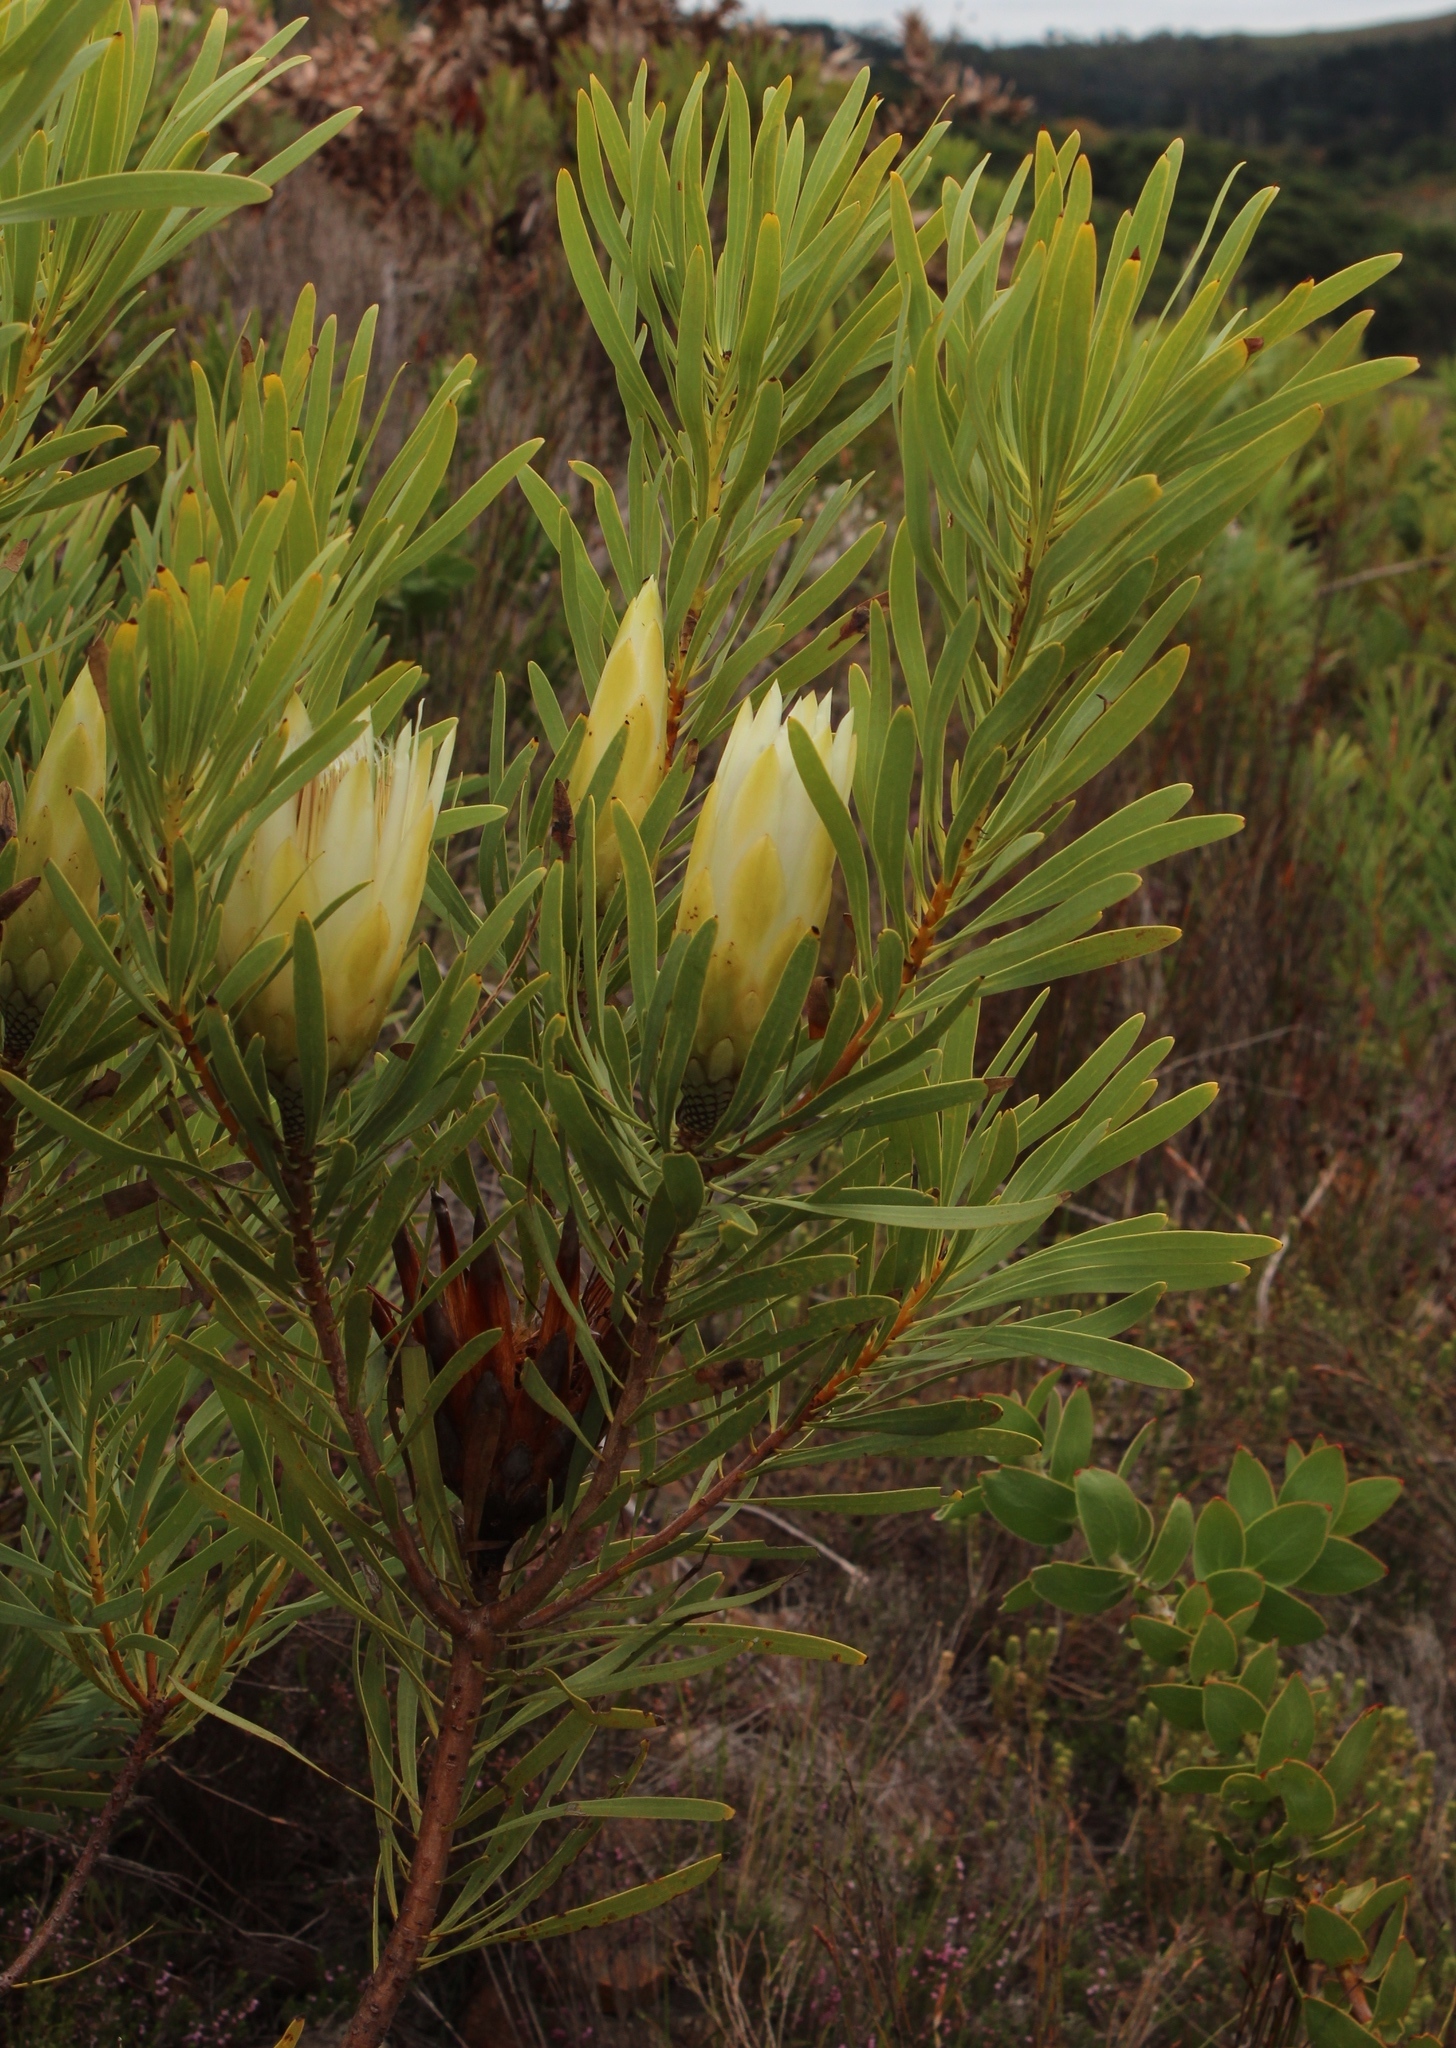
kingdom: Plantae
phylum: Tracheophyta
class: Magnoliopsida
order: Proteales
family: Proteaceae
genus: Protea
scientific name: Protea repens
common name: Sugarbush
